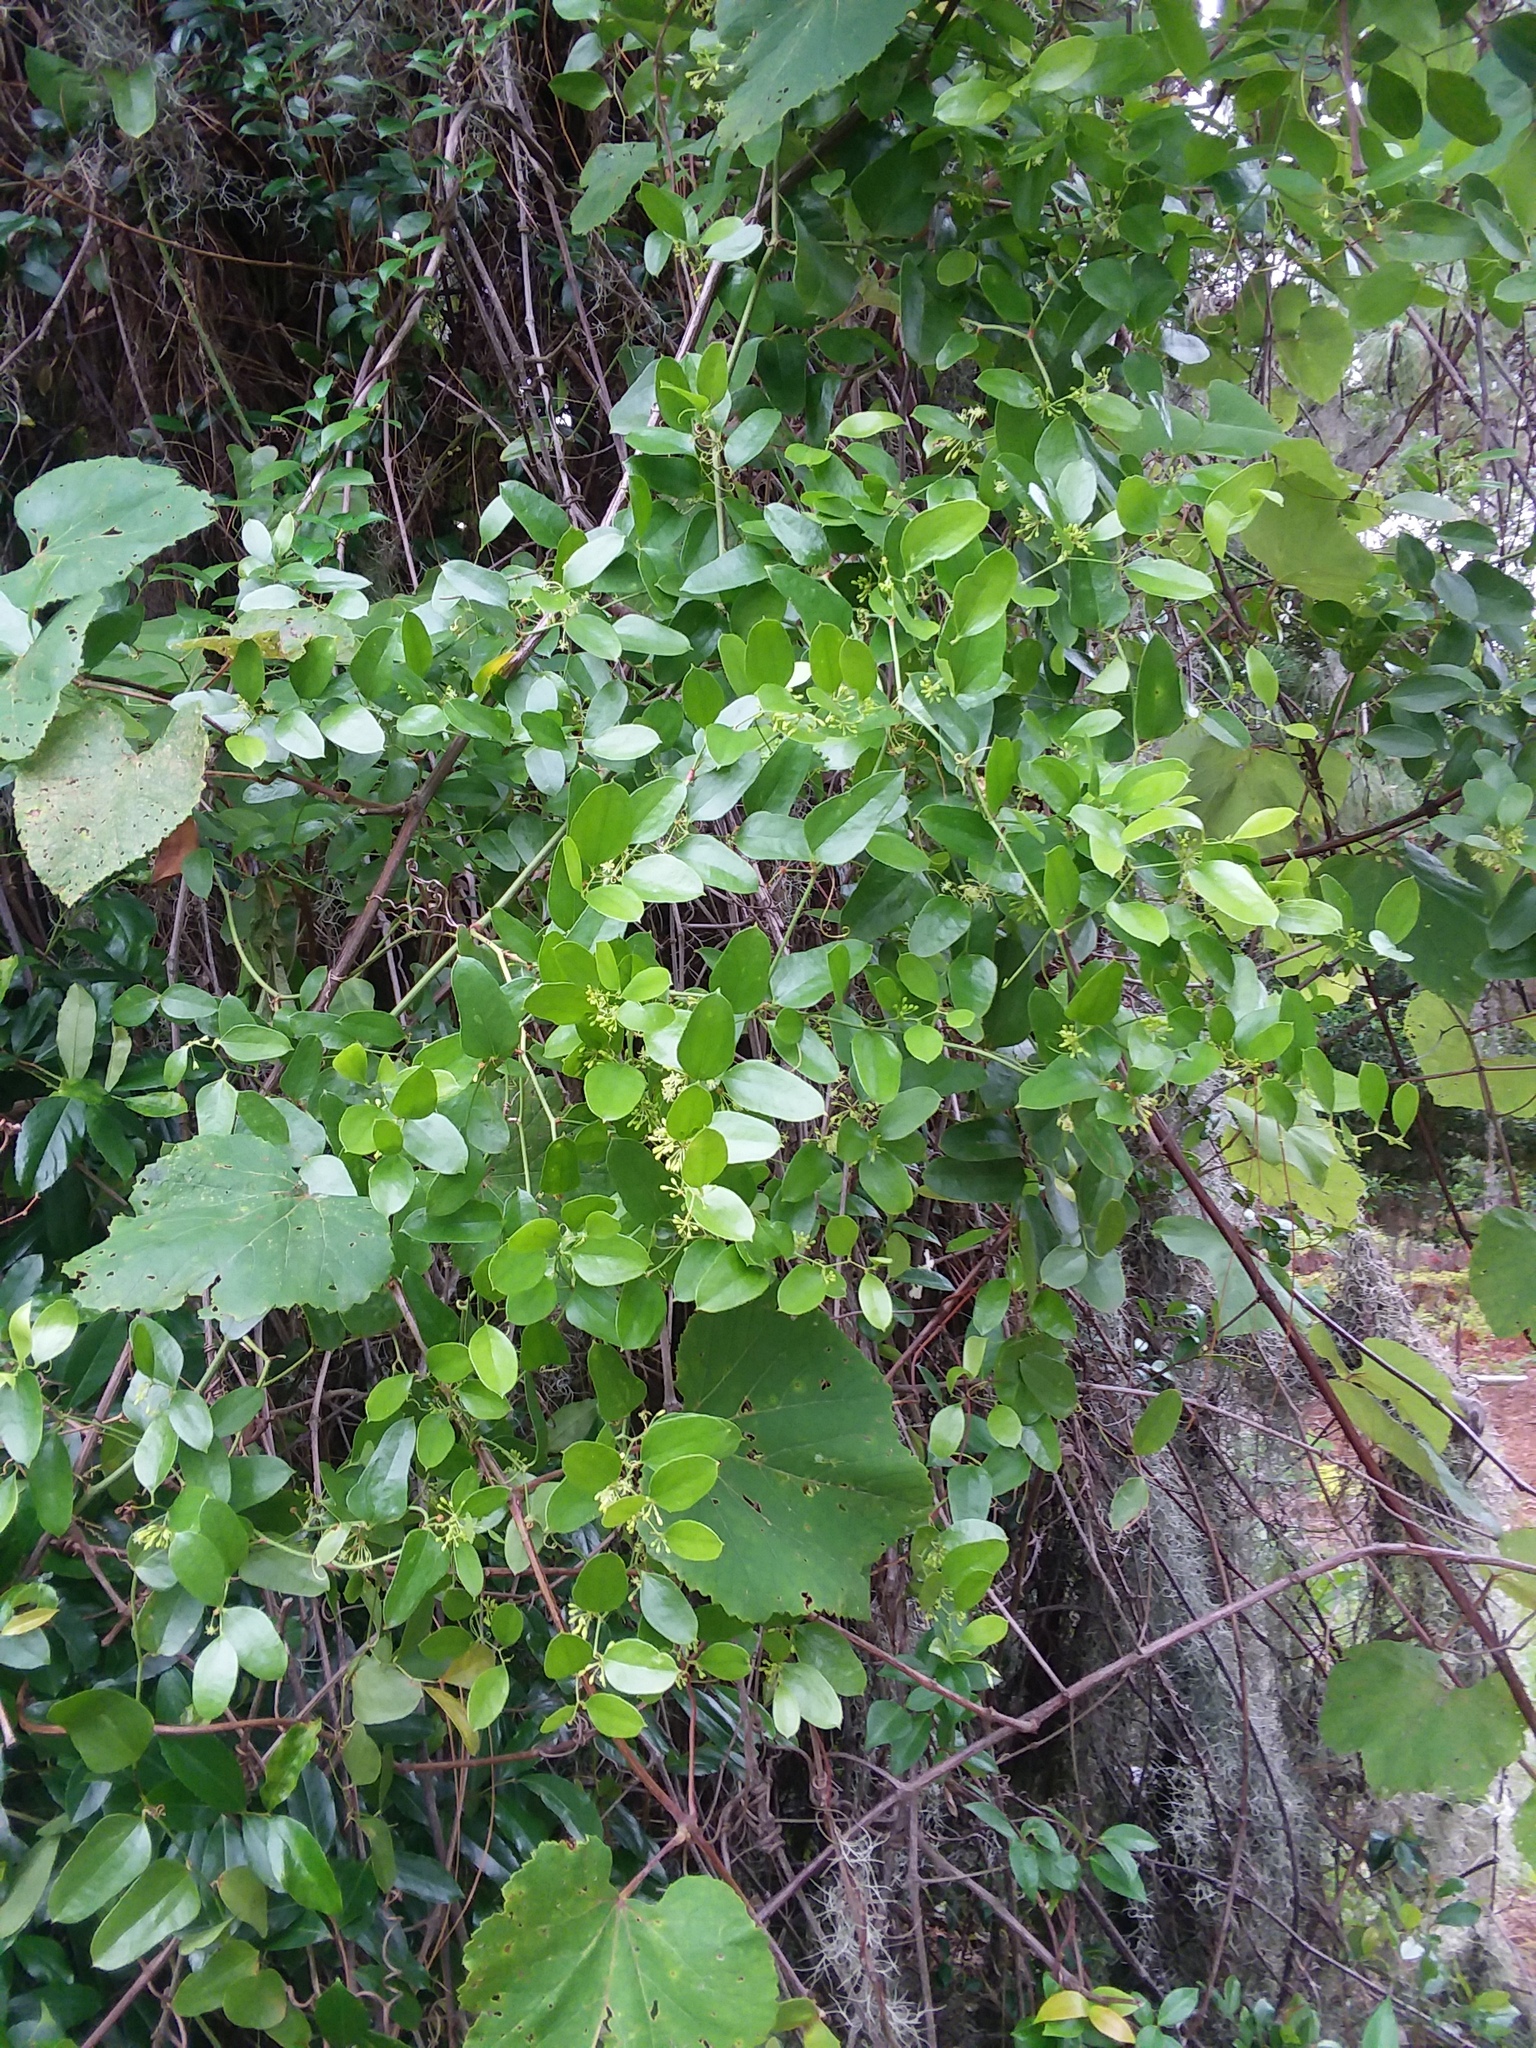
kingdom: Plantae
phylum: Tracheophyta
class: Liliopsida
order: Liliales
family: Smilacaceae
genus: Smilax
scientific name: Smilax auriculata
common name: Wild bamboo
